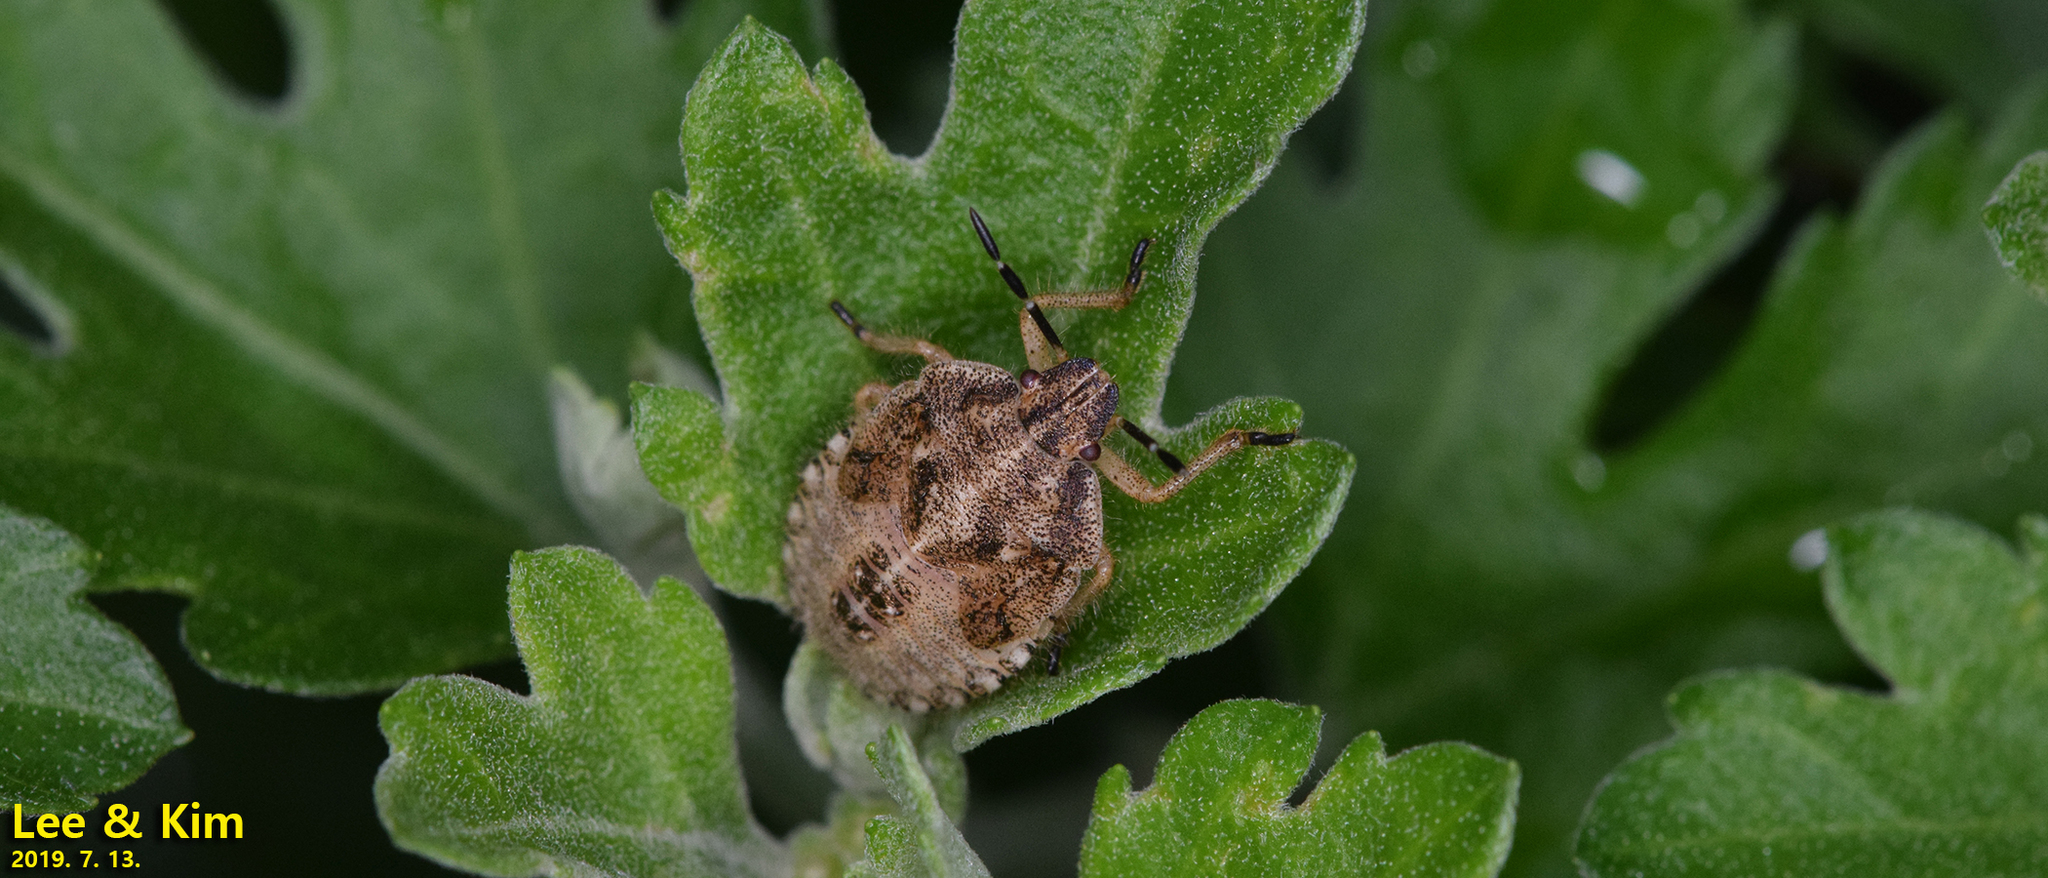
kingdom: Animalia
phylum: Arthropoda
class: Insecta
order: Hemiptera
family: Pentatomidae
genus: Dolycoris
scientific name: Dolycoris baccarum
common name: Sloe bug
